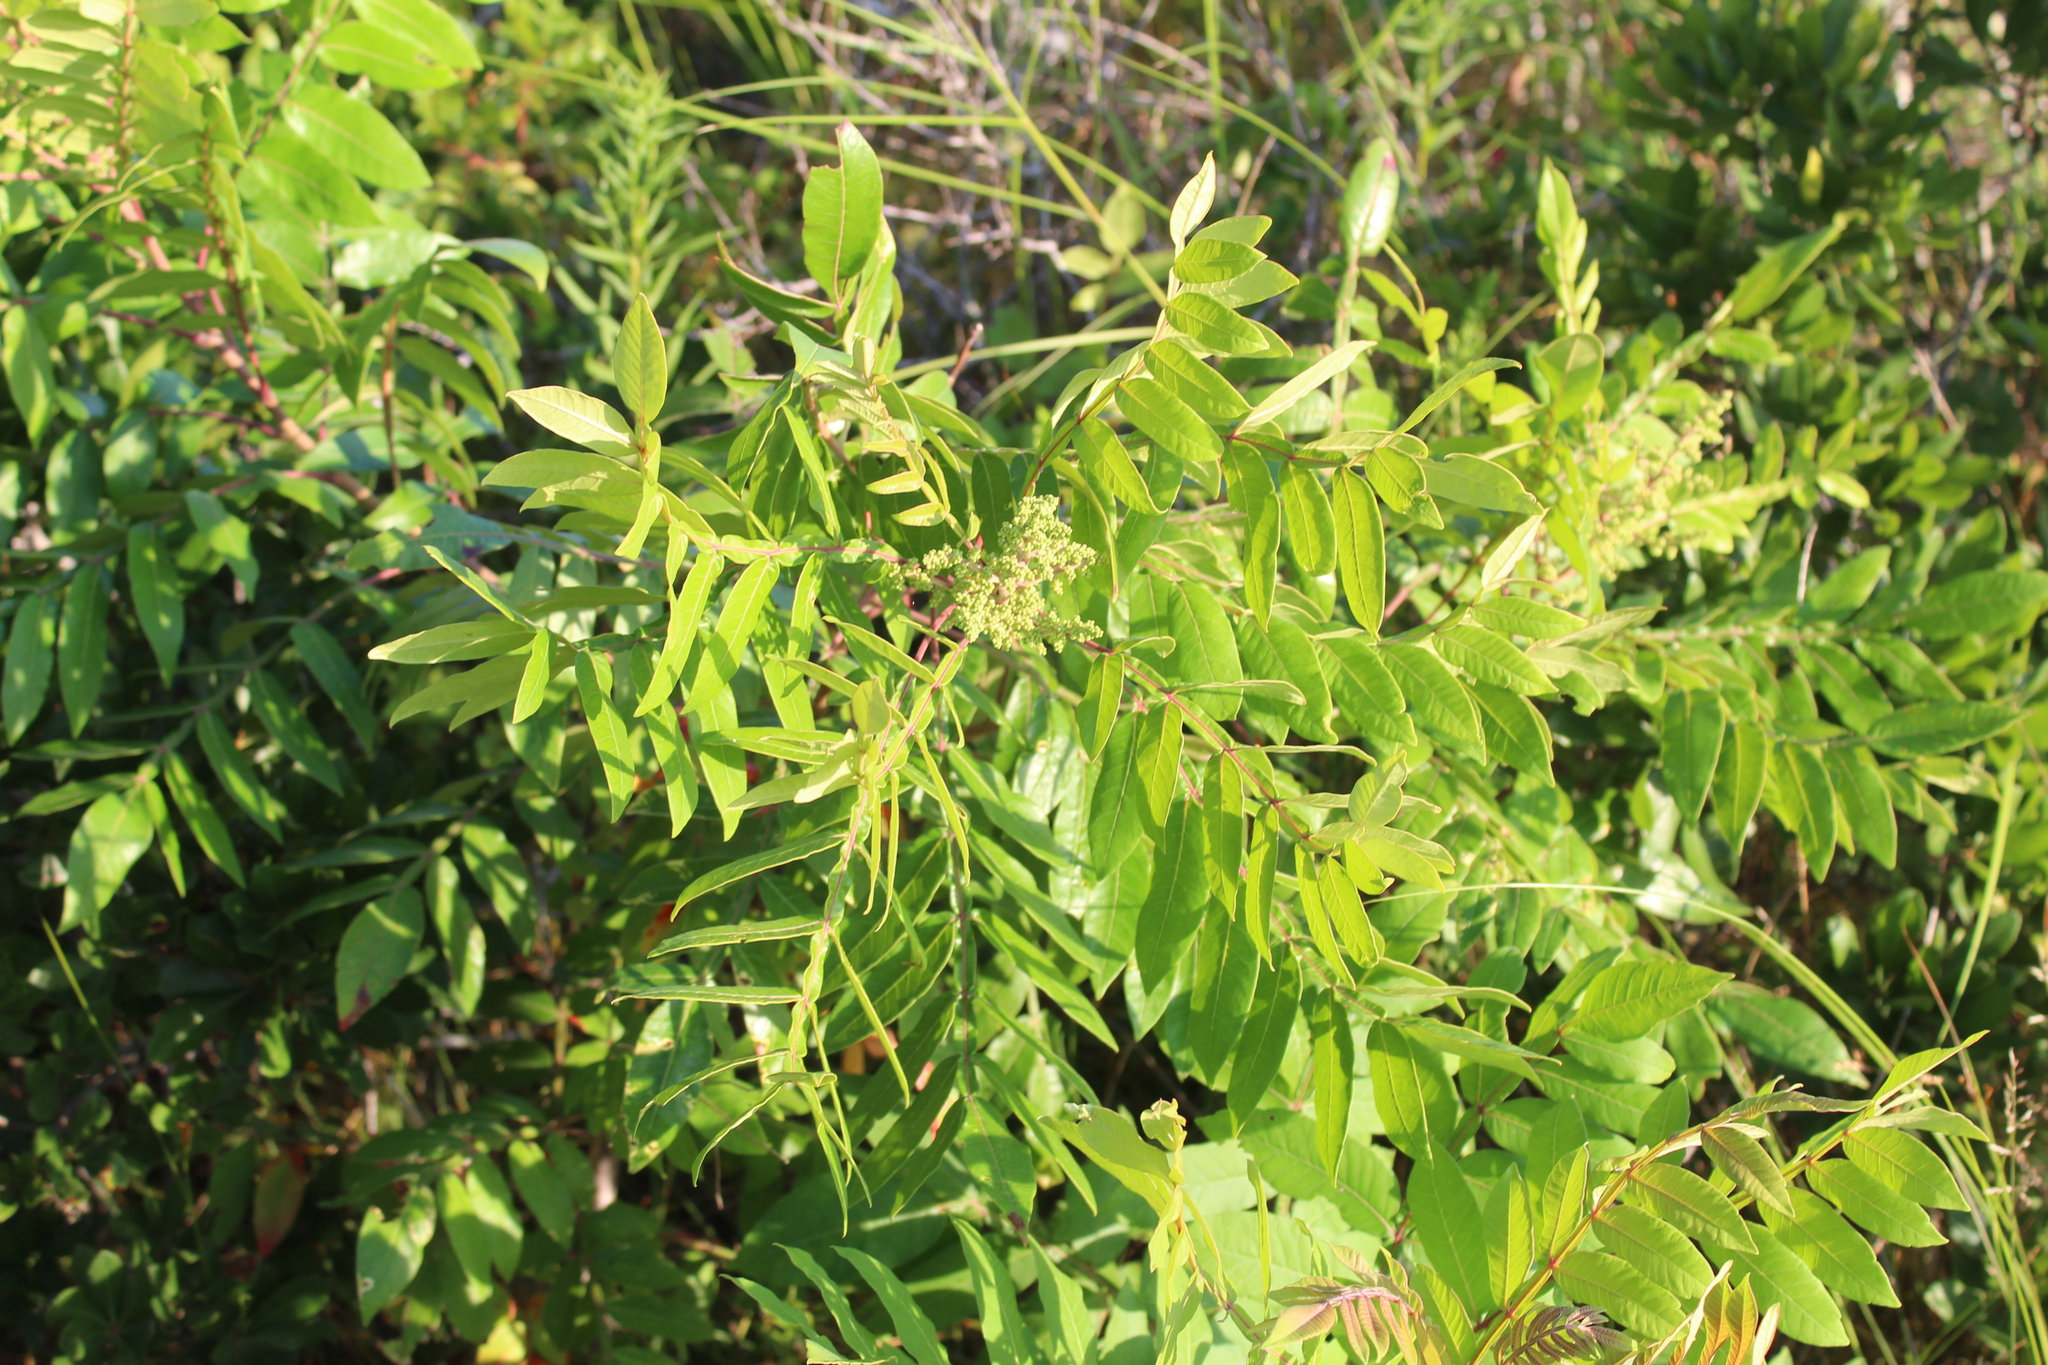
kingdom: Plantae
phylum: Tracheophyta
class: Magnoliopsida
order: Sapindales
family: Anacardiaceae
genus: Rhus
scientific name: Rhus copallina
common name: Shining sumac
